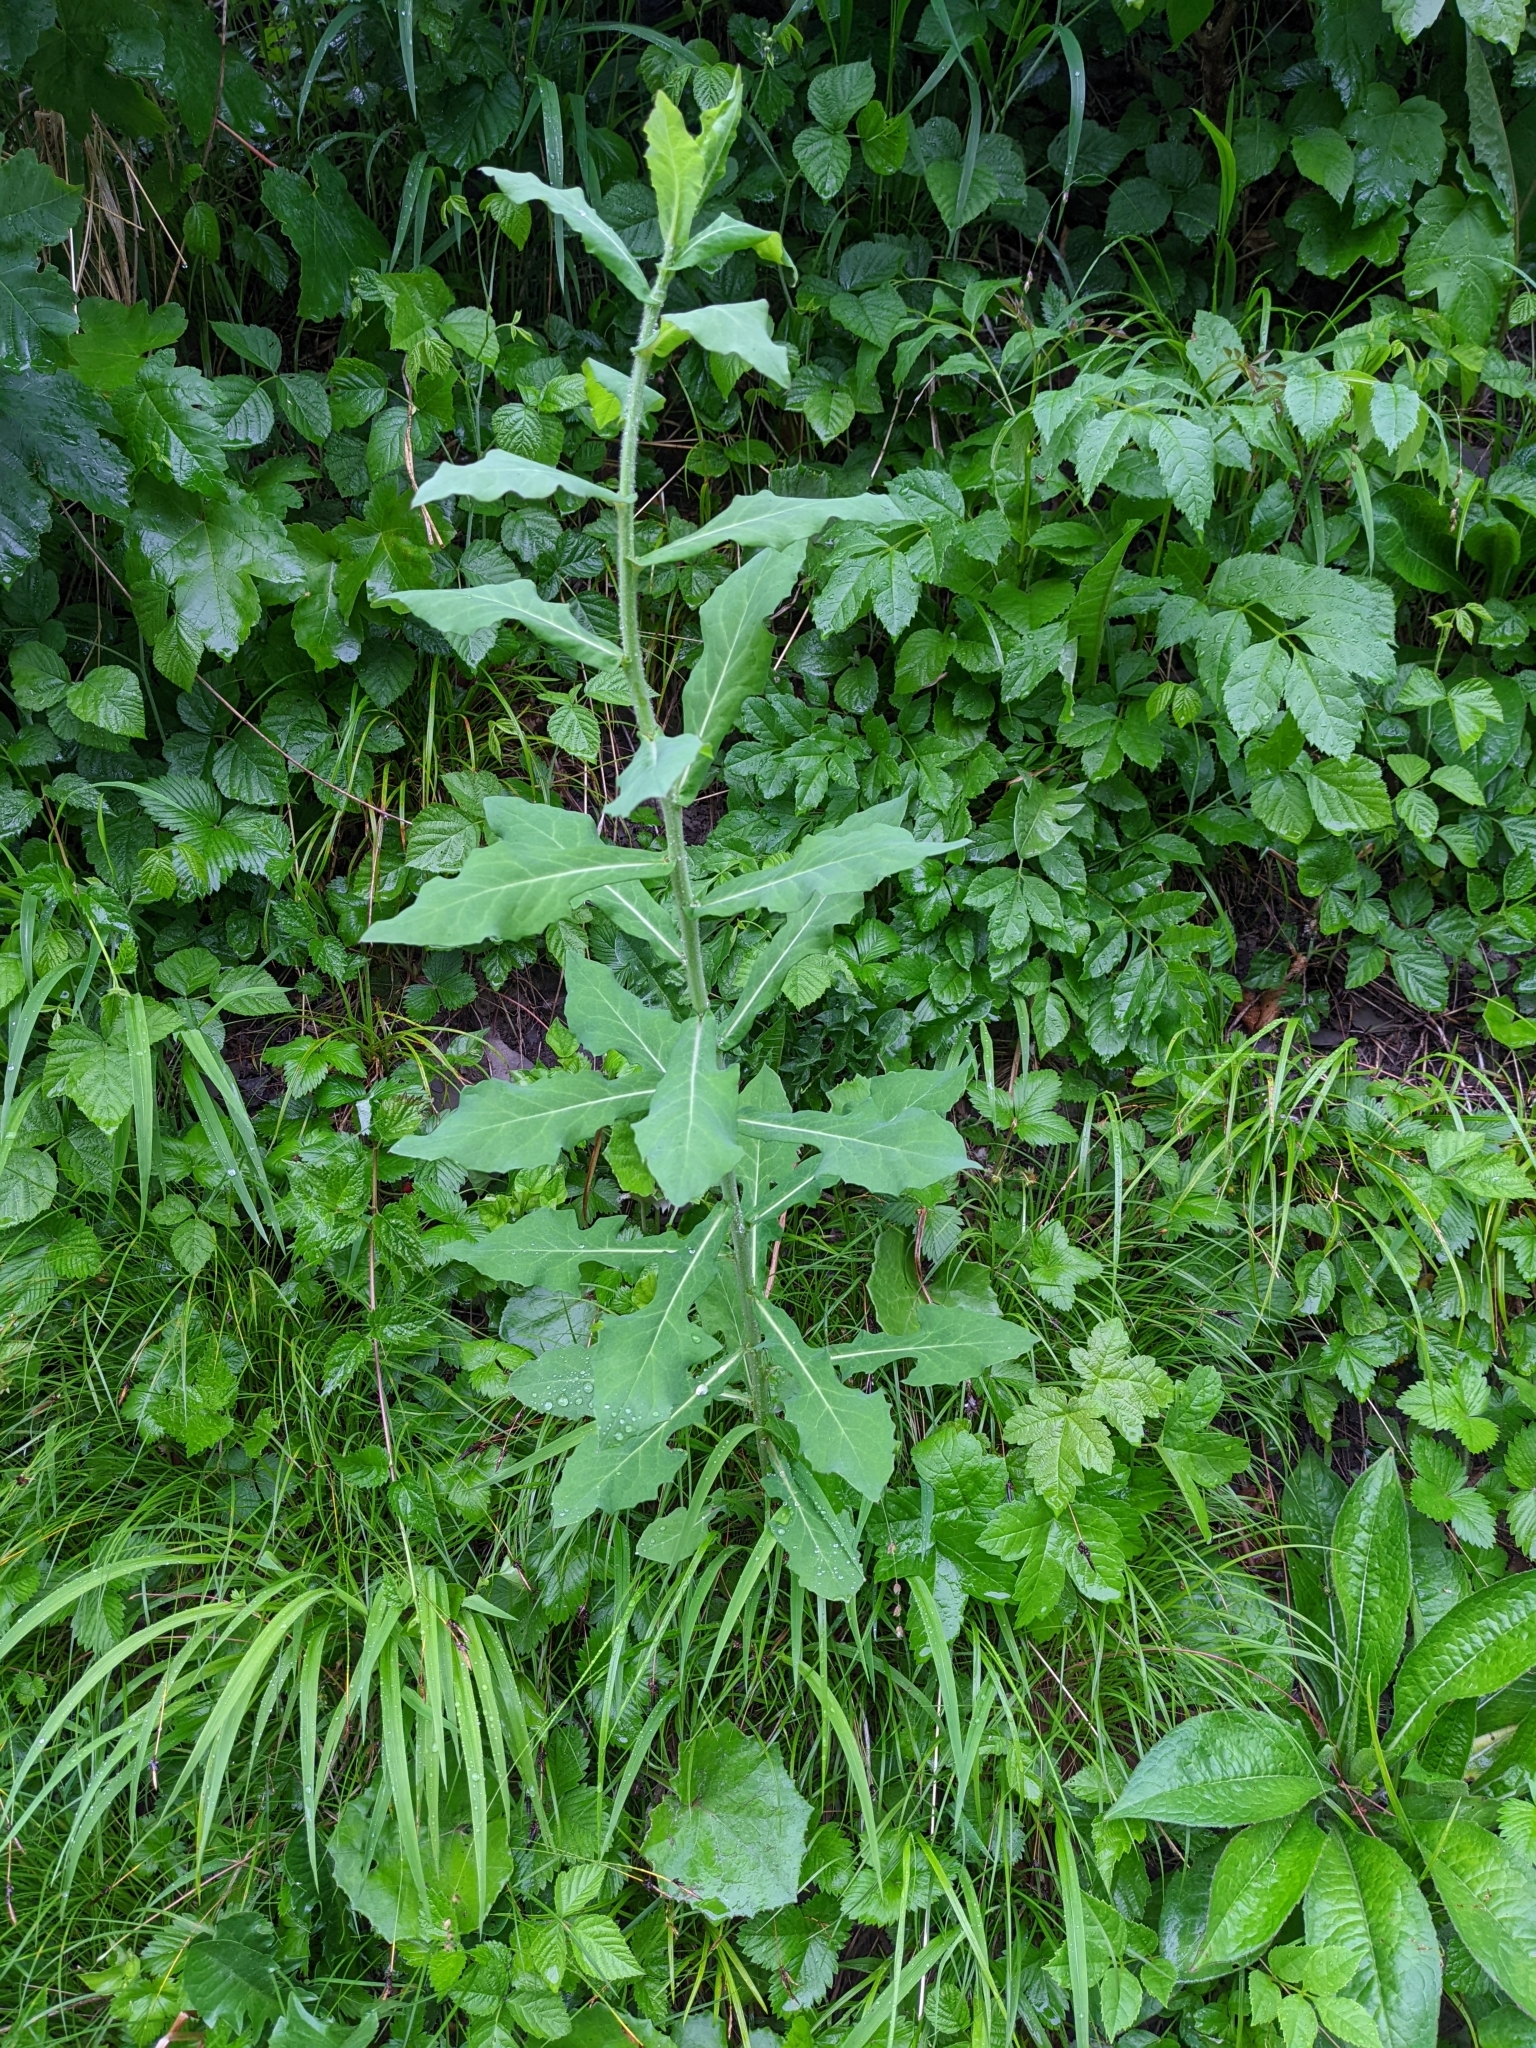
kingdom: Plantae
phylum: Tracheophyta
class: Magnoliopsida
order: Asterales
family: Asteraceae
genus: Prenanthes
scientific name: Prenanthes purpurea
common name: Purple lettuce
